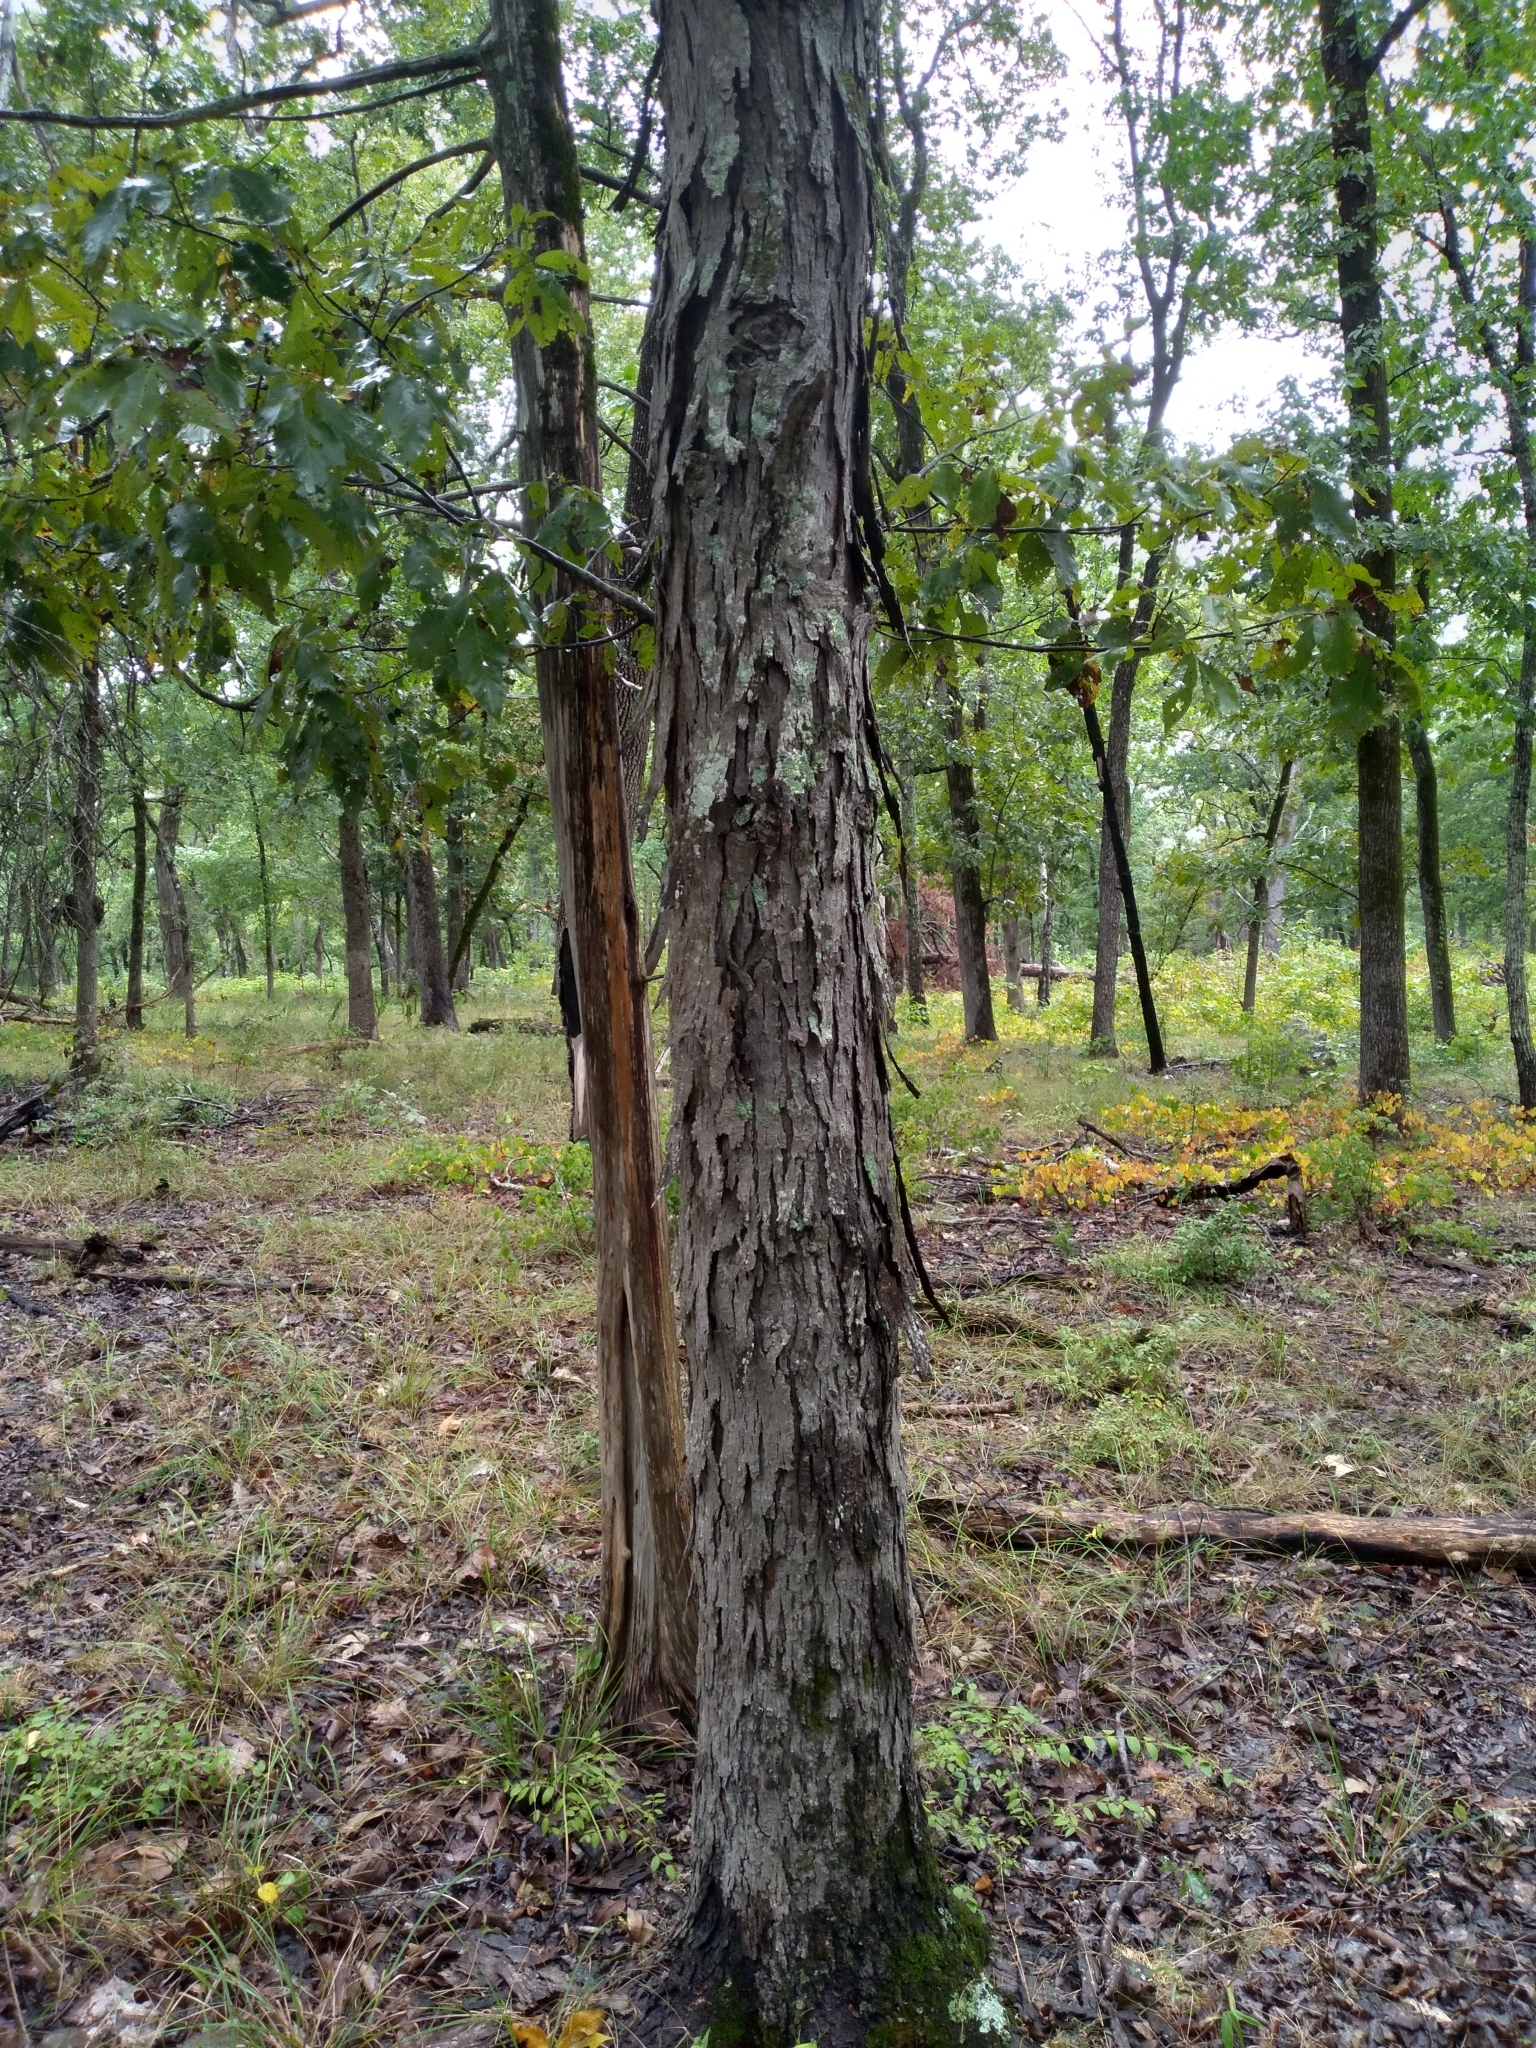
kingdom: Plantae
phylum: Tracheophyta
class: Magnoliopsida
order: Fagales
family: Juglandaceae
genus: Carya
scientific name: Carya carolinae-septentrionalis
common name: Carolina hickory
